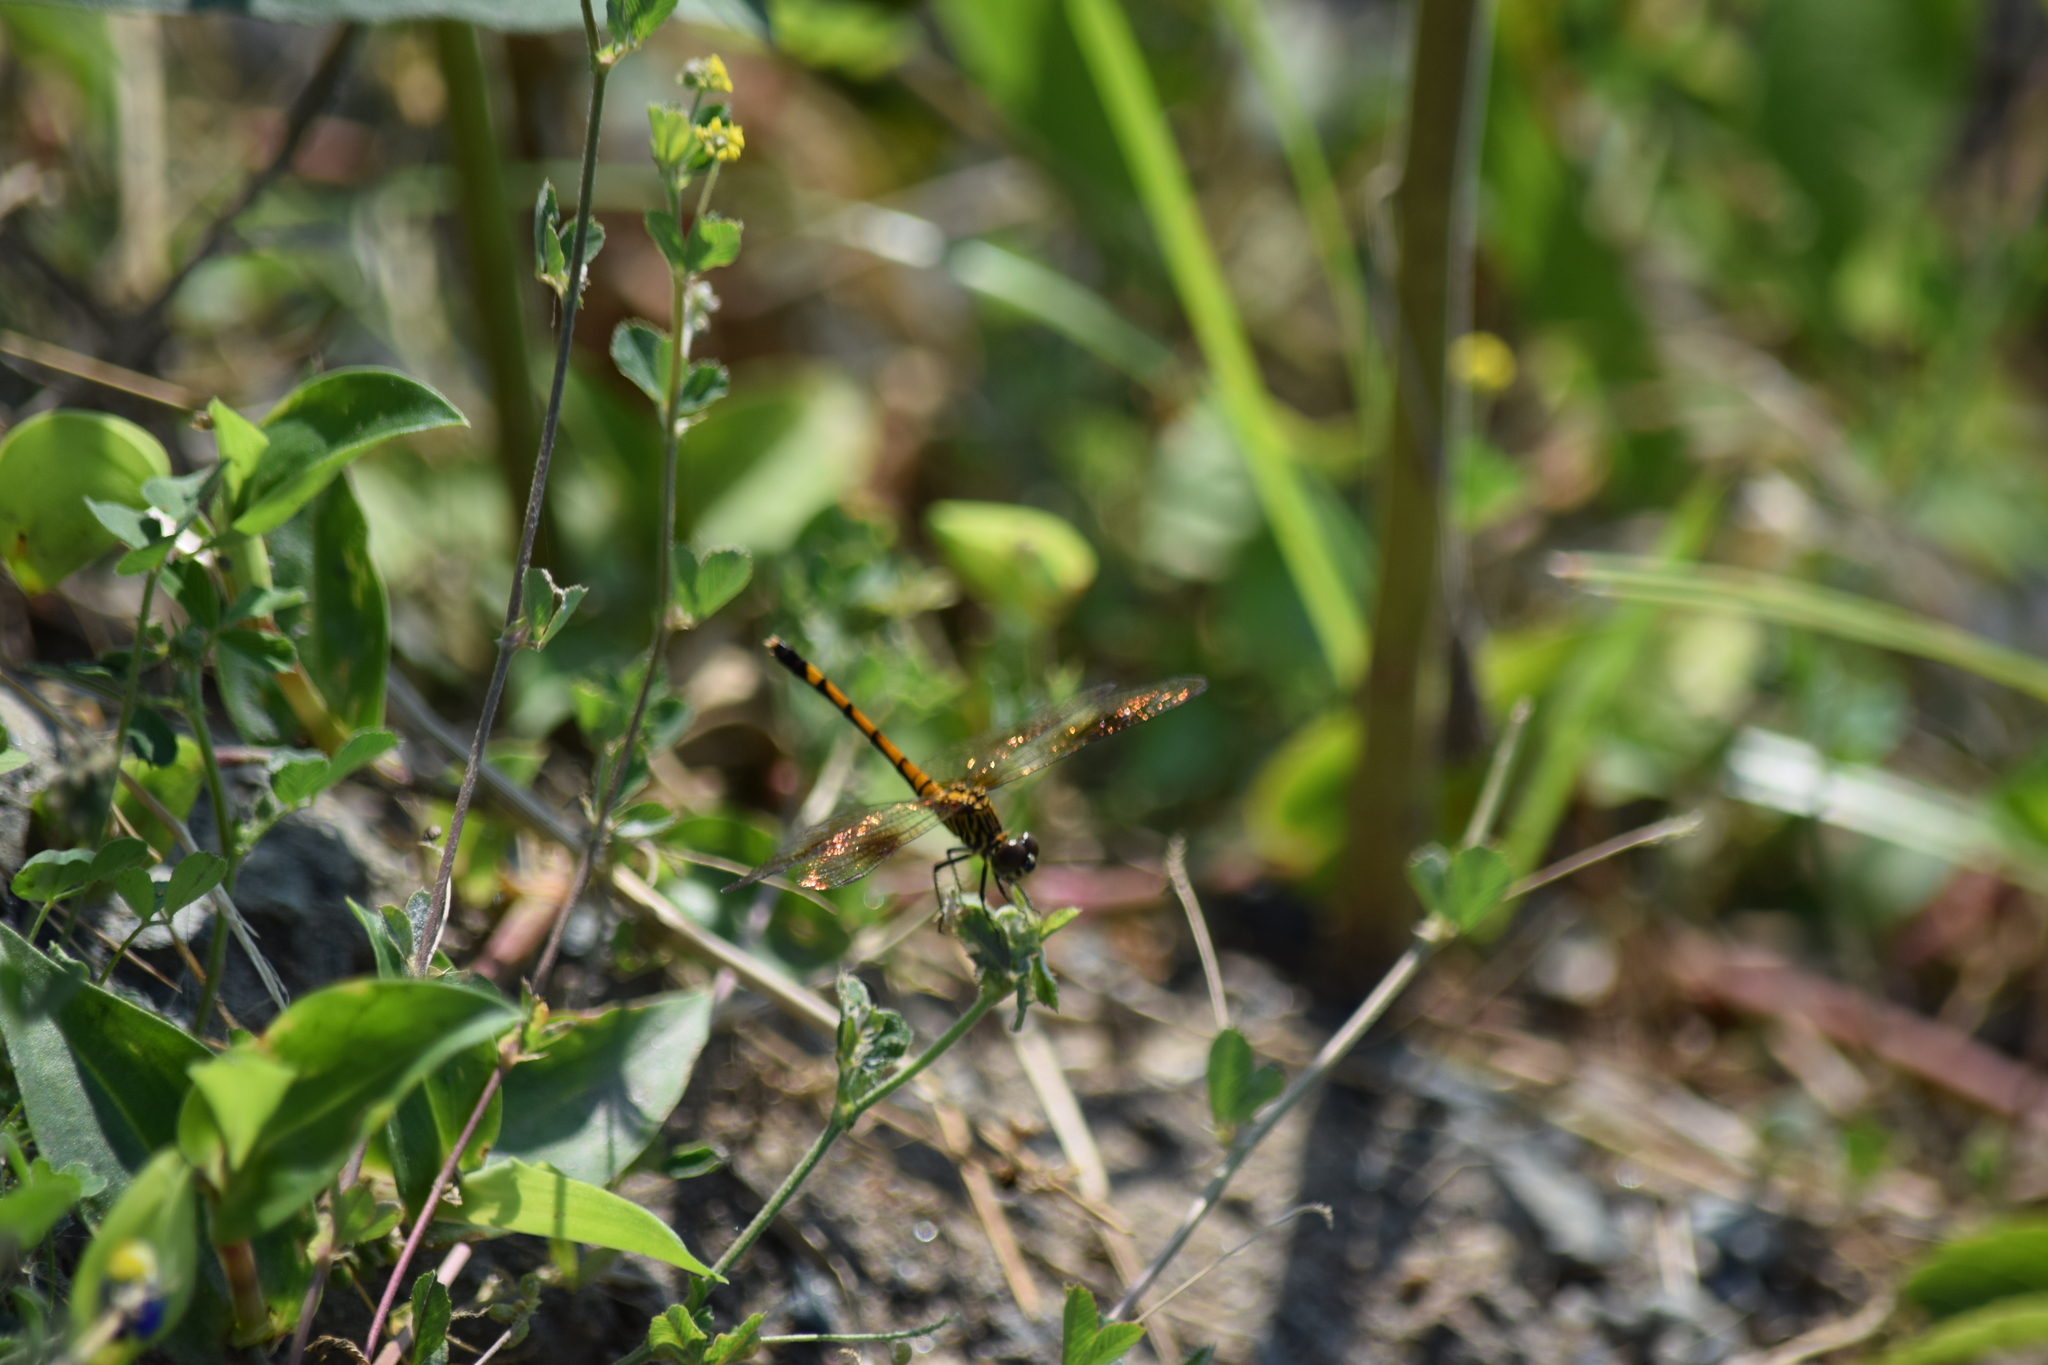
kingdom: Animalia
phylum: Arthropoda
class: Insecta
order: Odonata
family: Libellulidae
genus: Erythrodiplax
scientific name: Erythrodiplax berenice
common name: Seaside dragonlet
